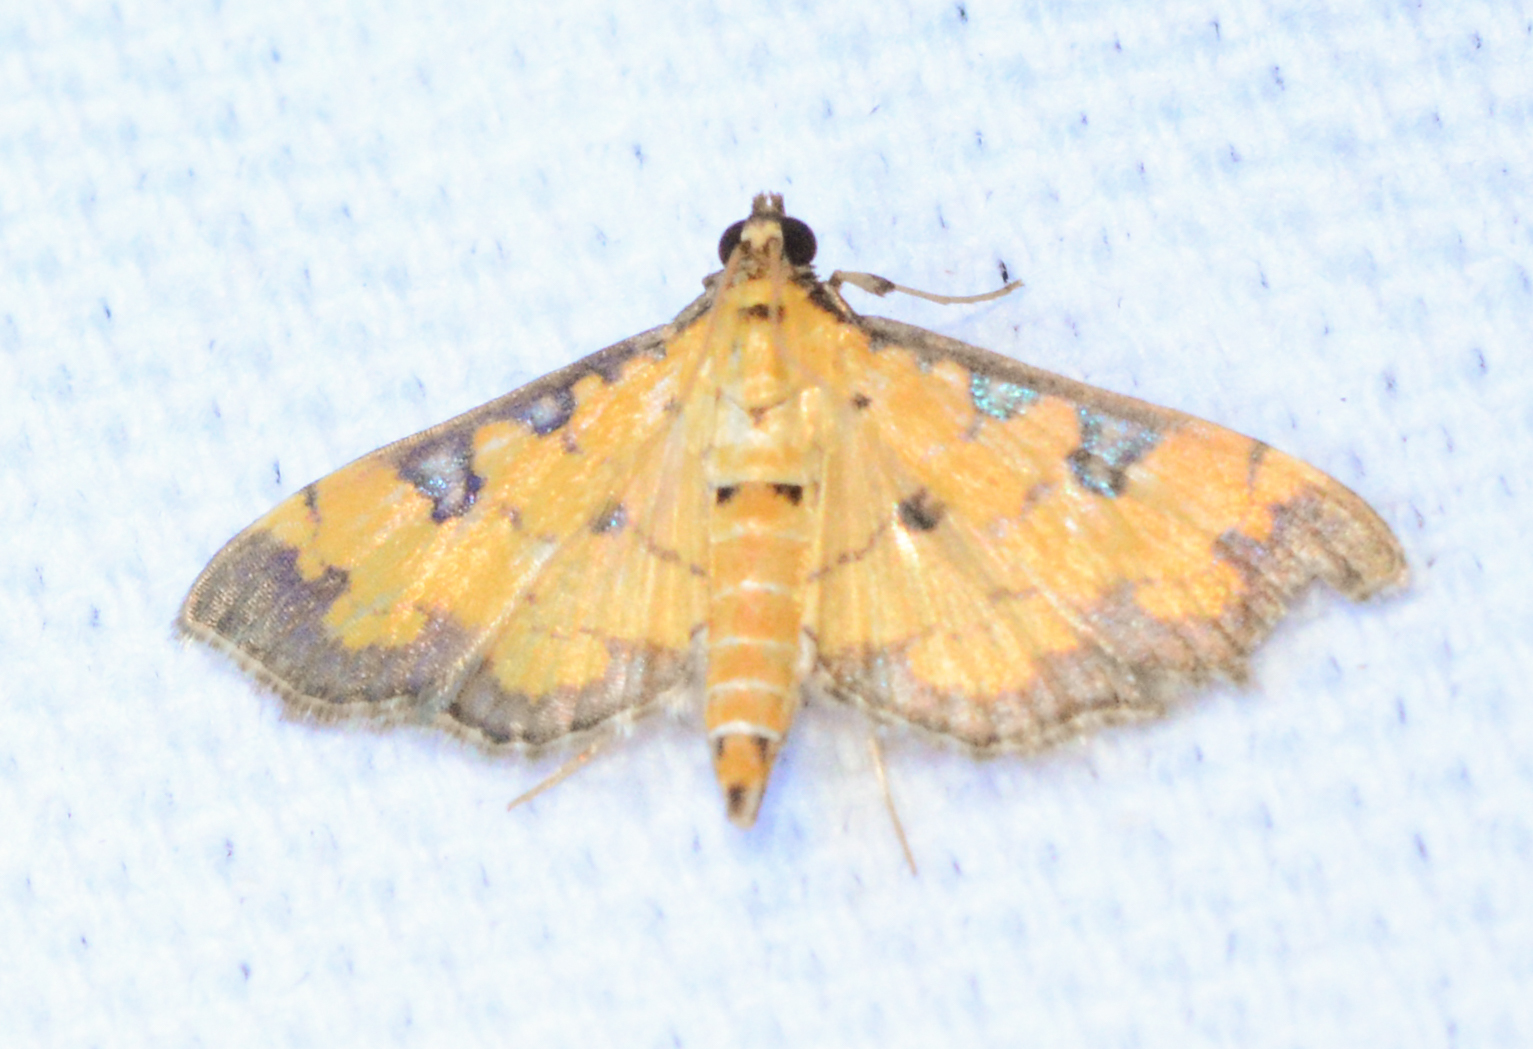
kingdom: Animalia
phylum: Arthropoda
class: Insecta
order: Lepidoptera
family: Crambidae
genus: Ategumia
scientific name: Ategumia ebulealis
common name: Moth
